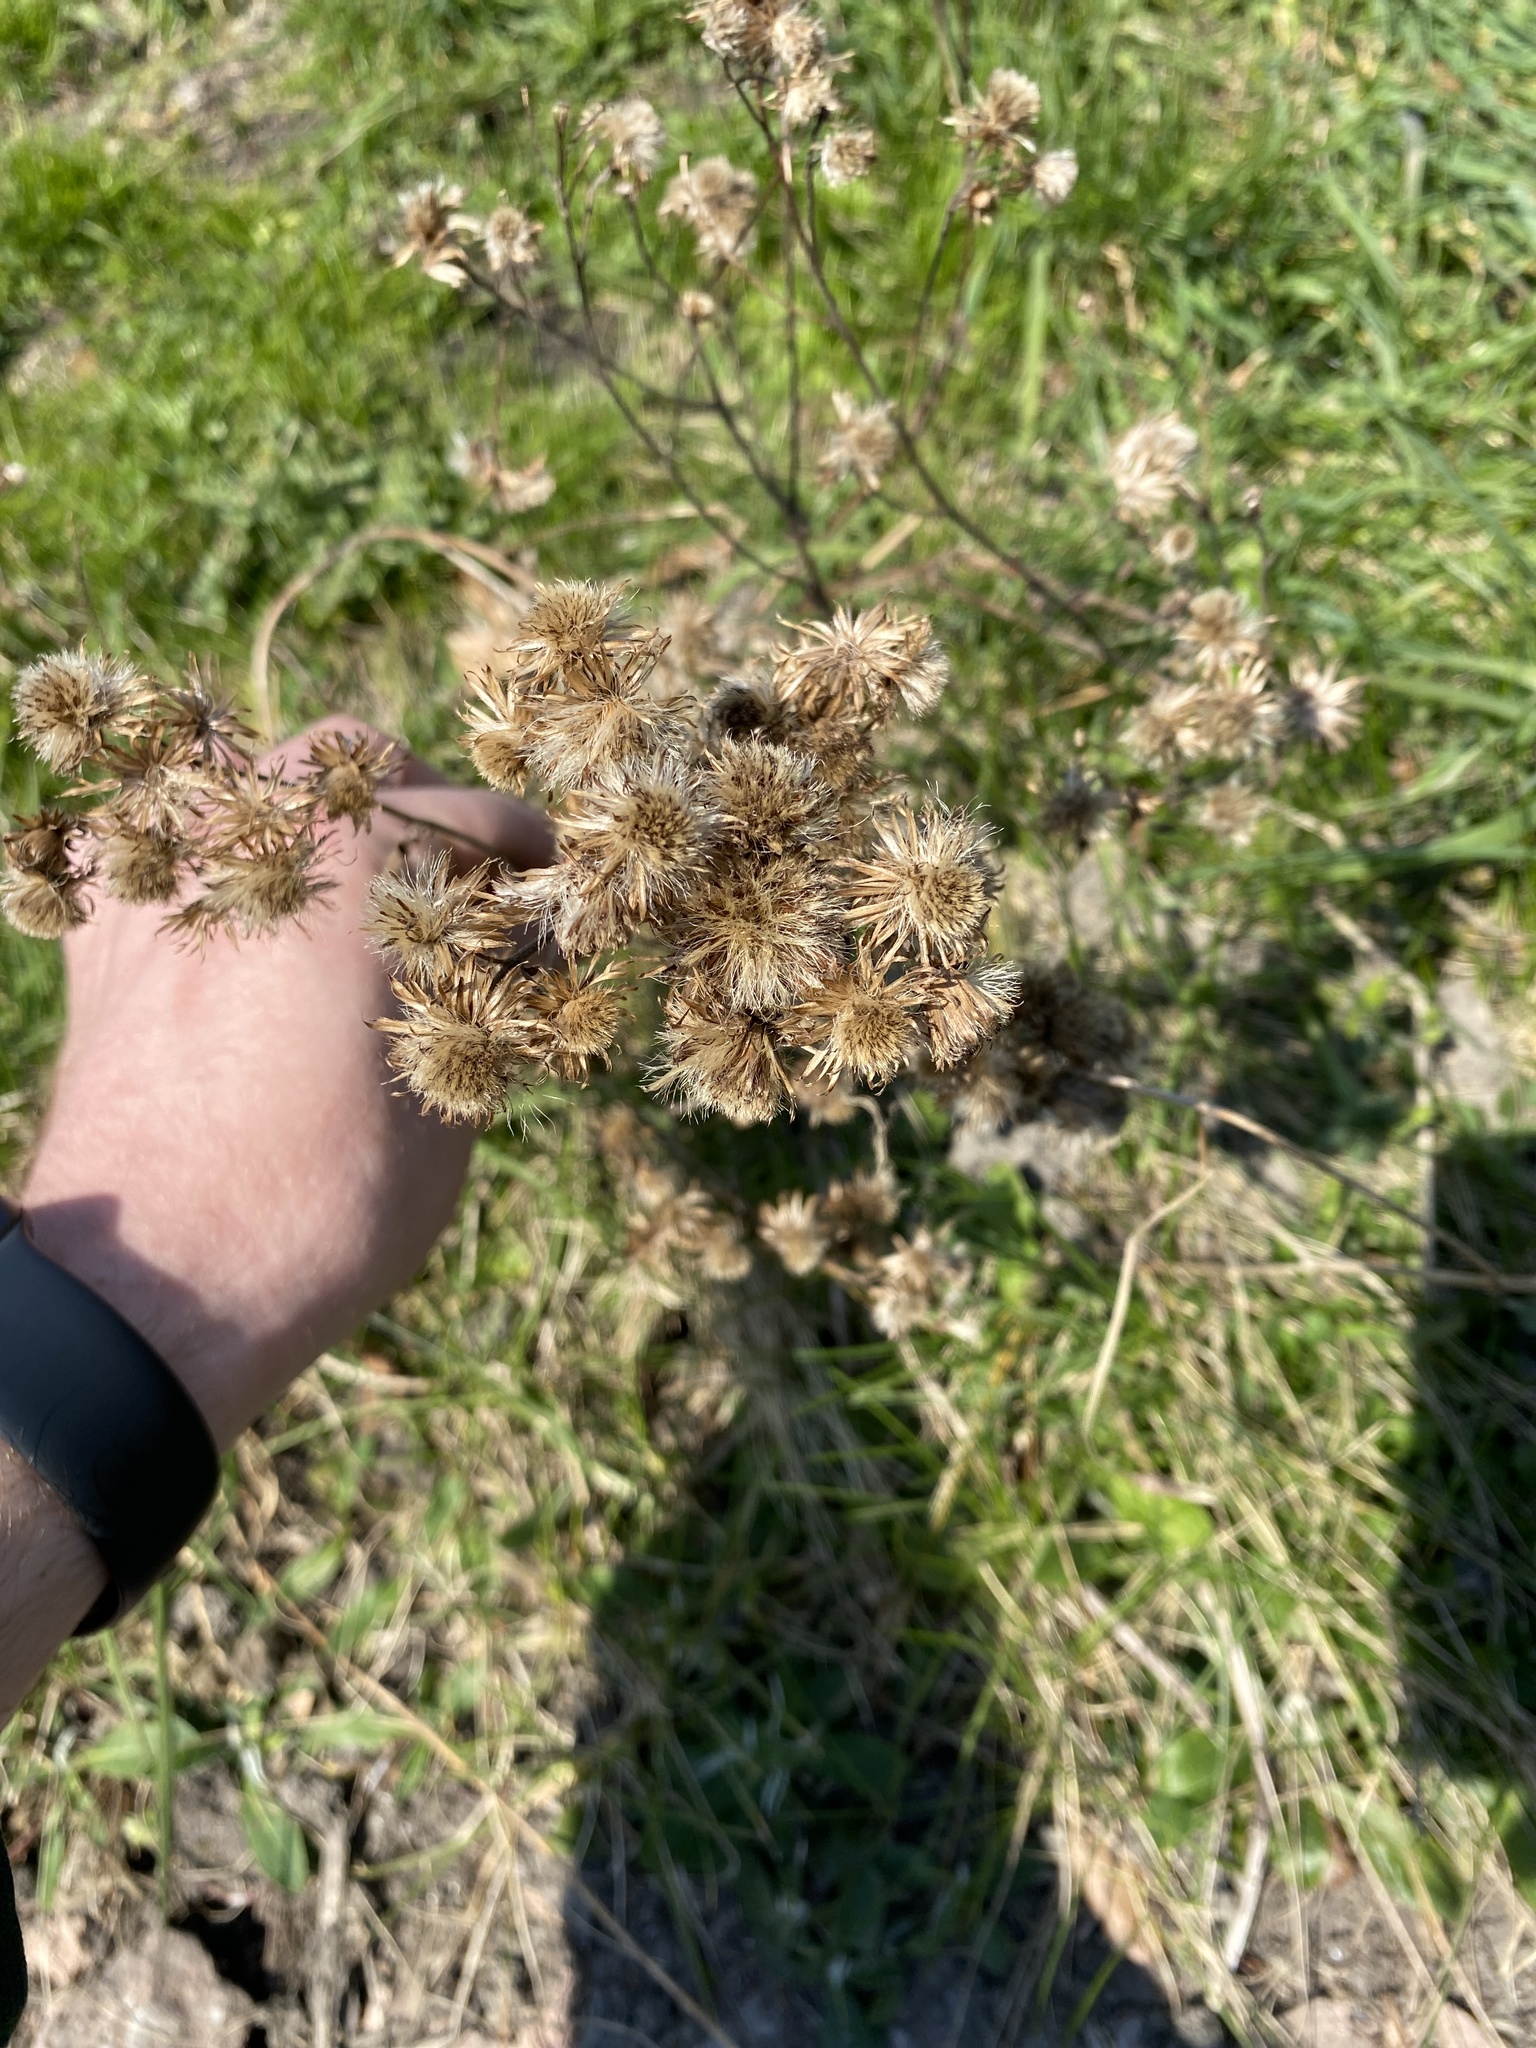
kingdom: Plantae
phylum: Tracheophyta
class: Magnoliopsida
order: Asterales
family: Asteraceae
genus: Arctium
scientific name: Arctium minus
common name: Lesser burdock
